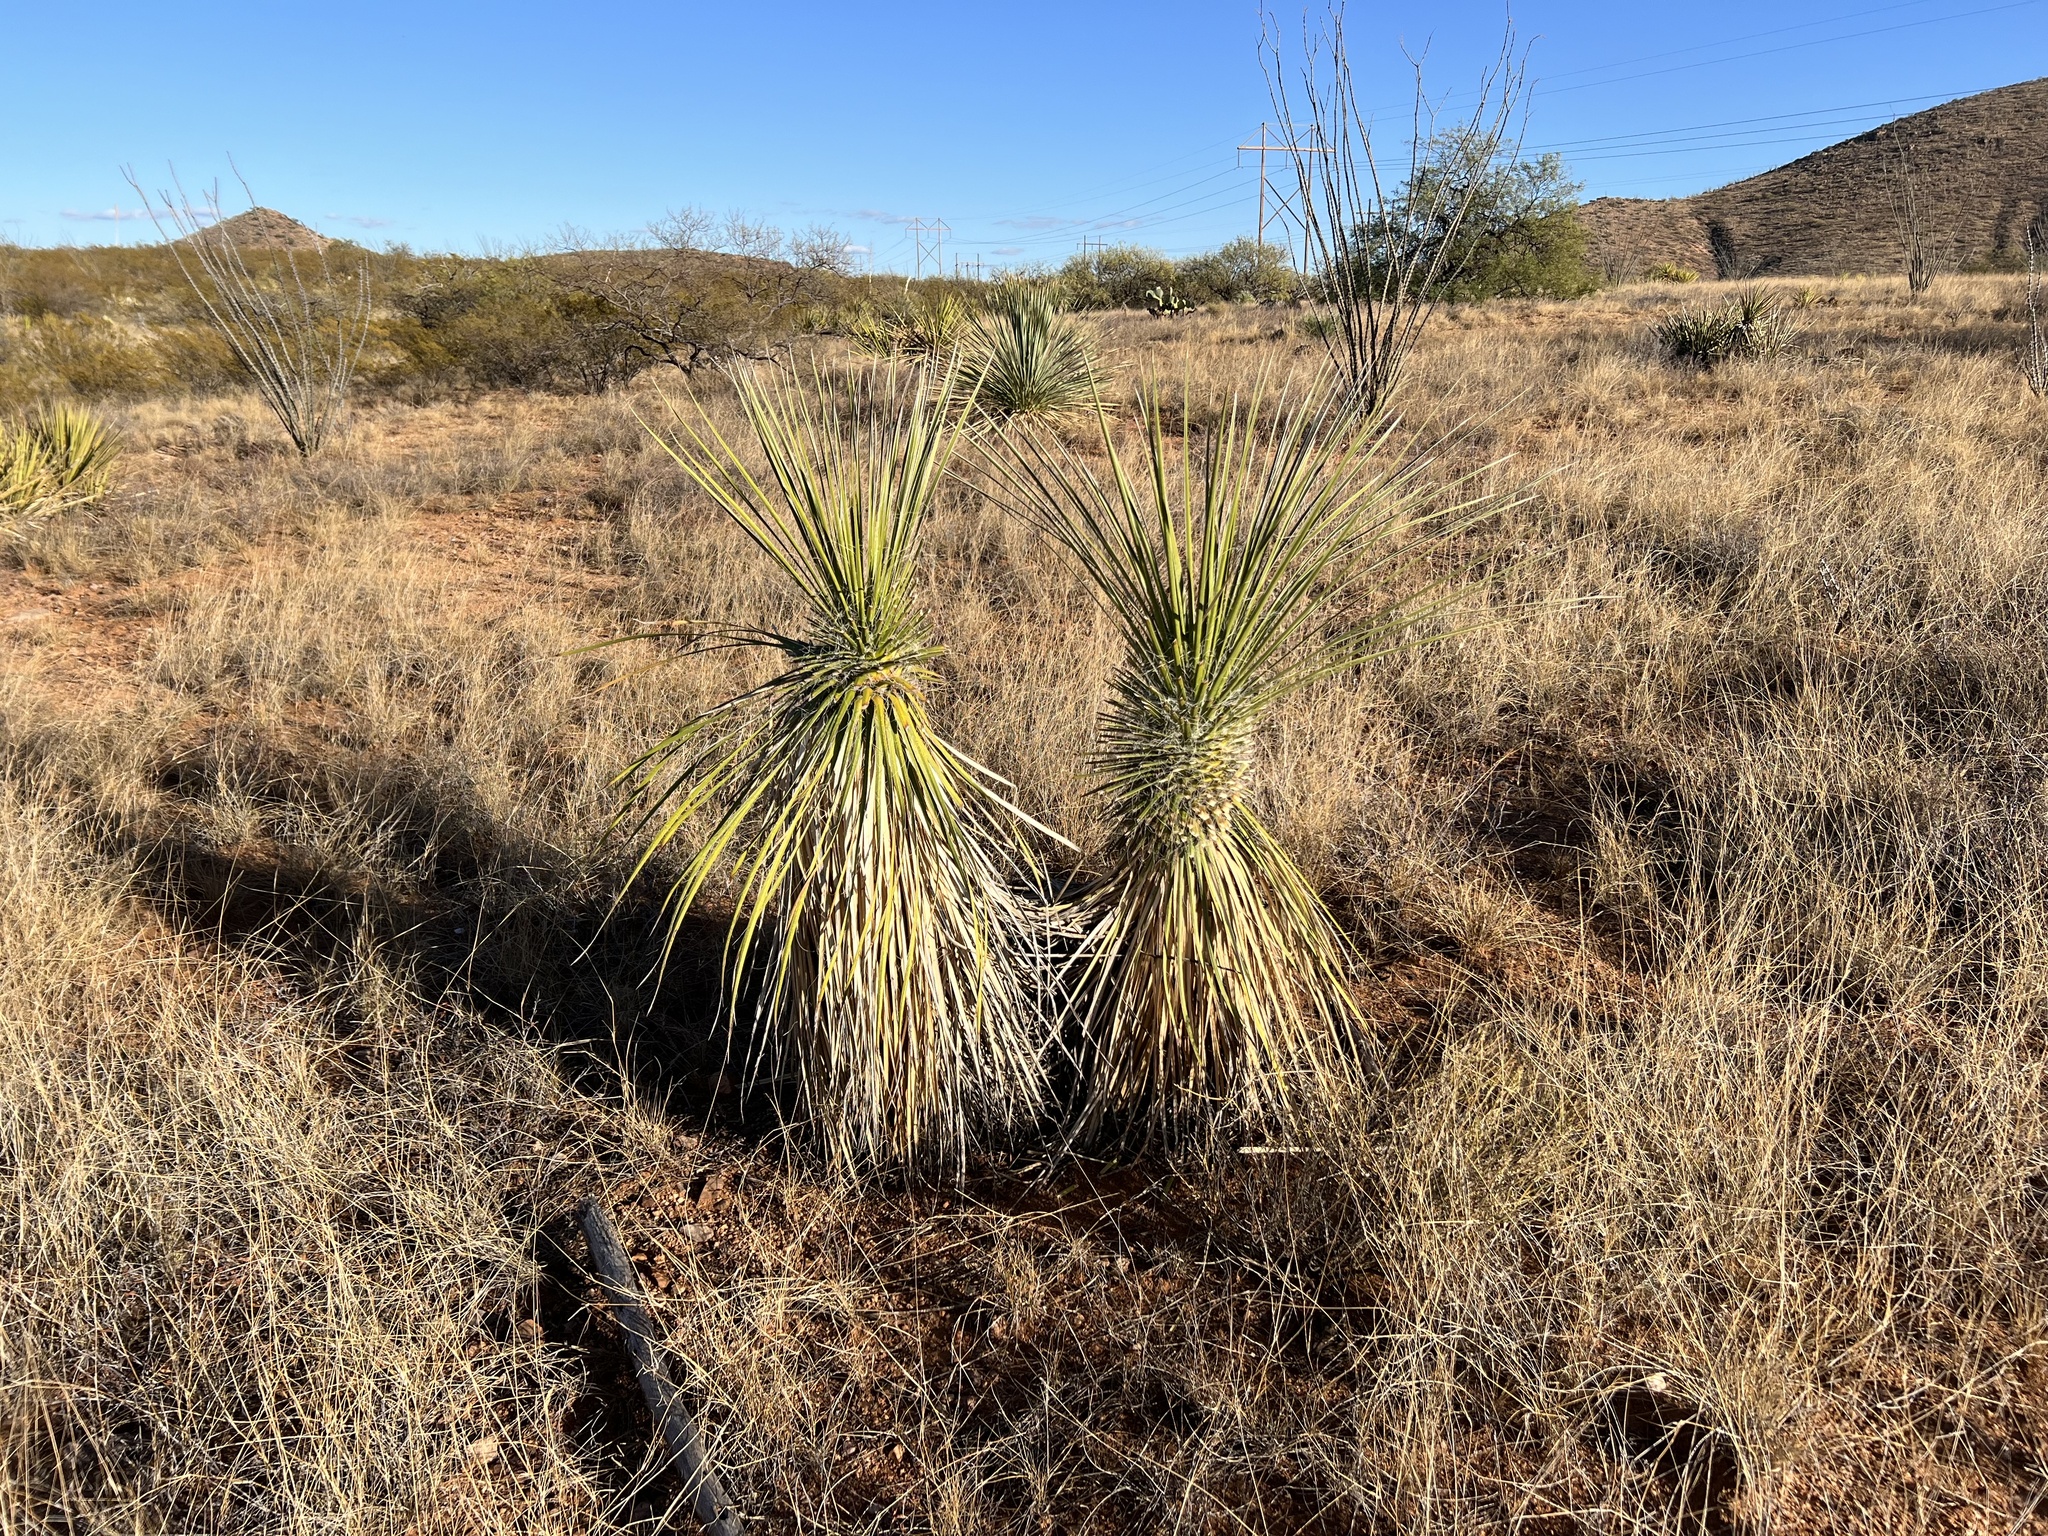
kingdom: Plantae
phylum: Tracheophyta
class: Liliopsida
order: Asparagales
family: Asparagaceae
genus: Yucca
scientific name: Yucca elata
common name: Palmella
